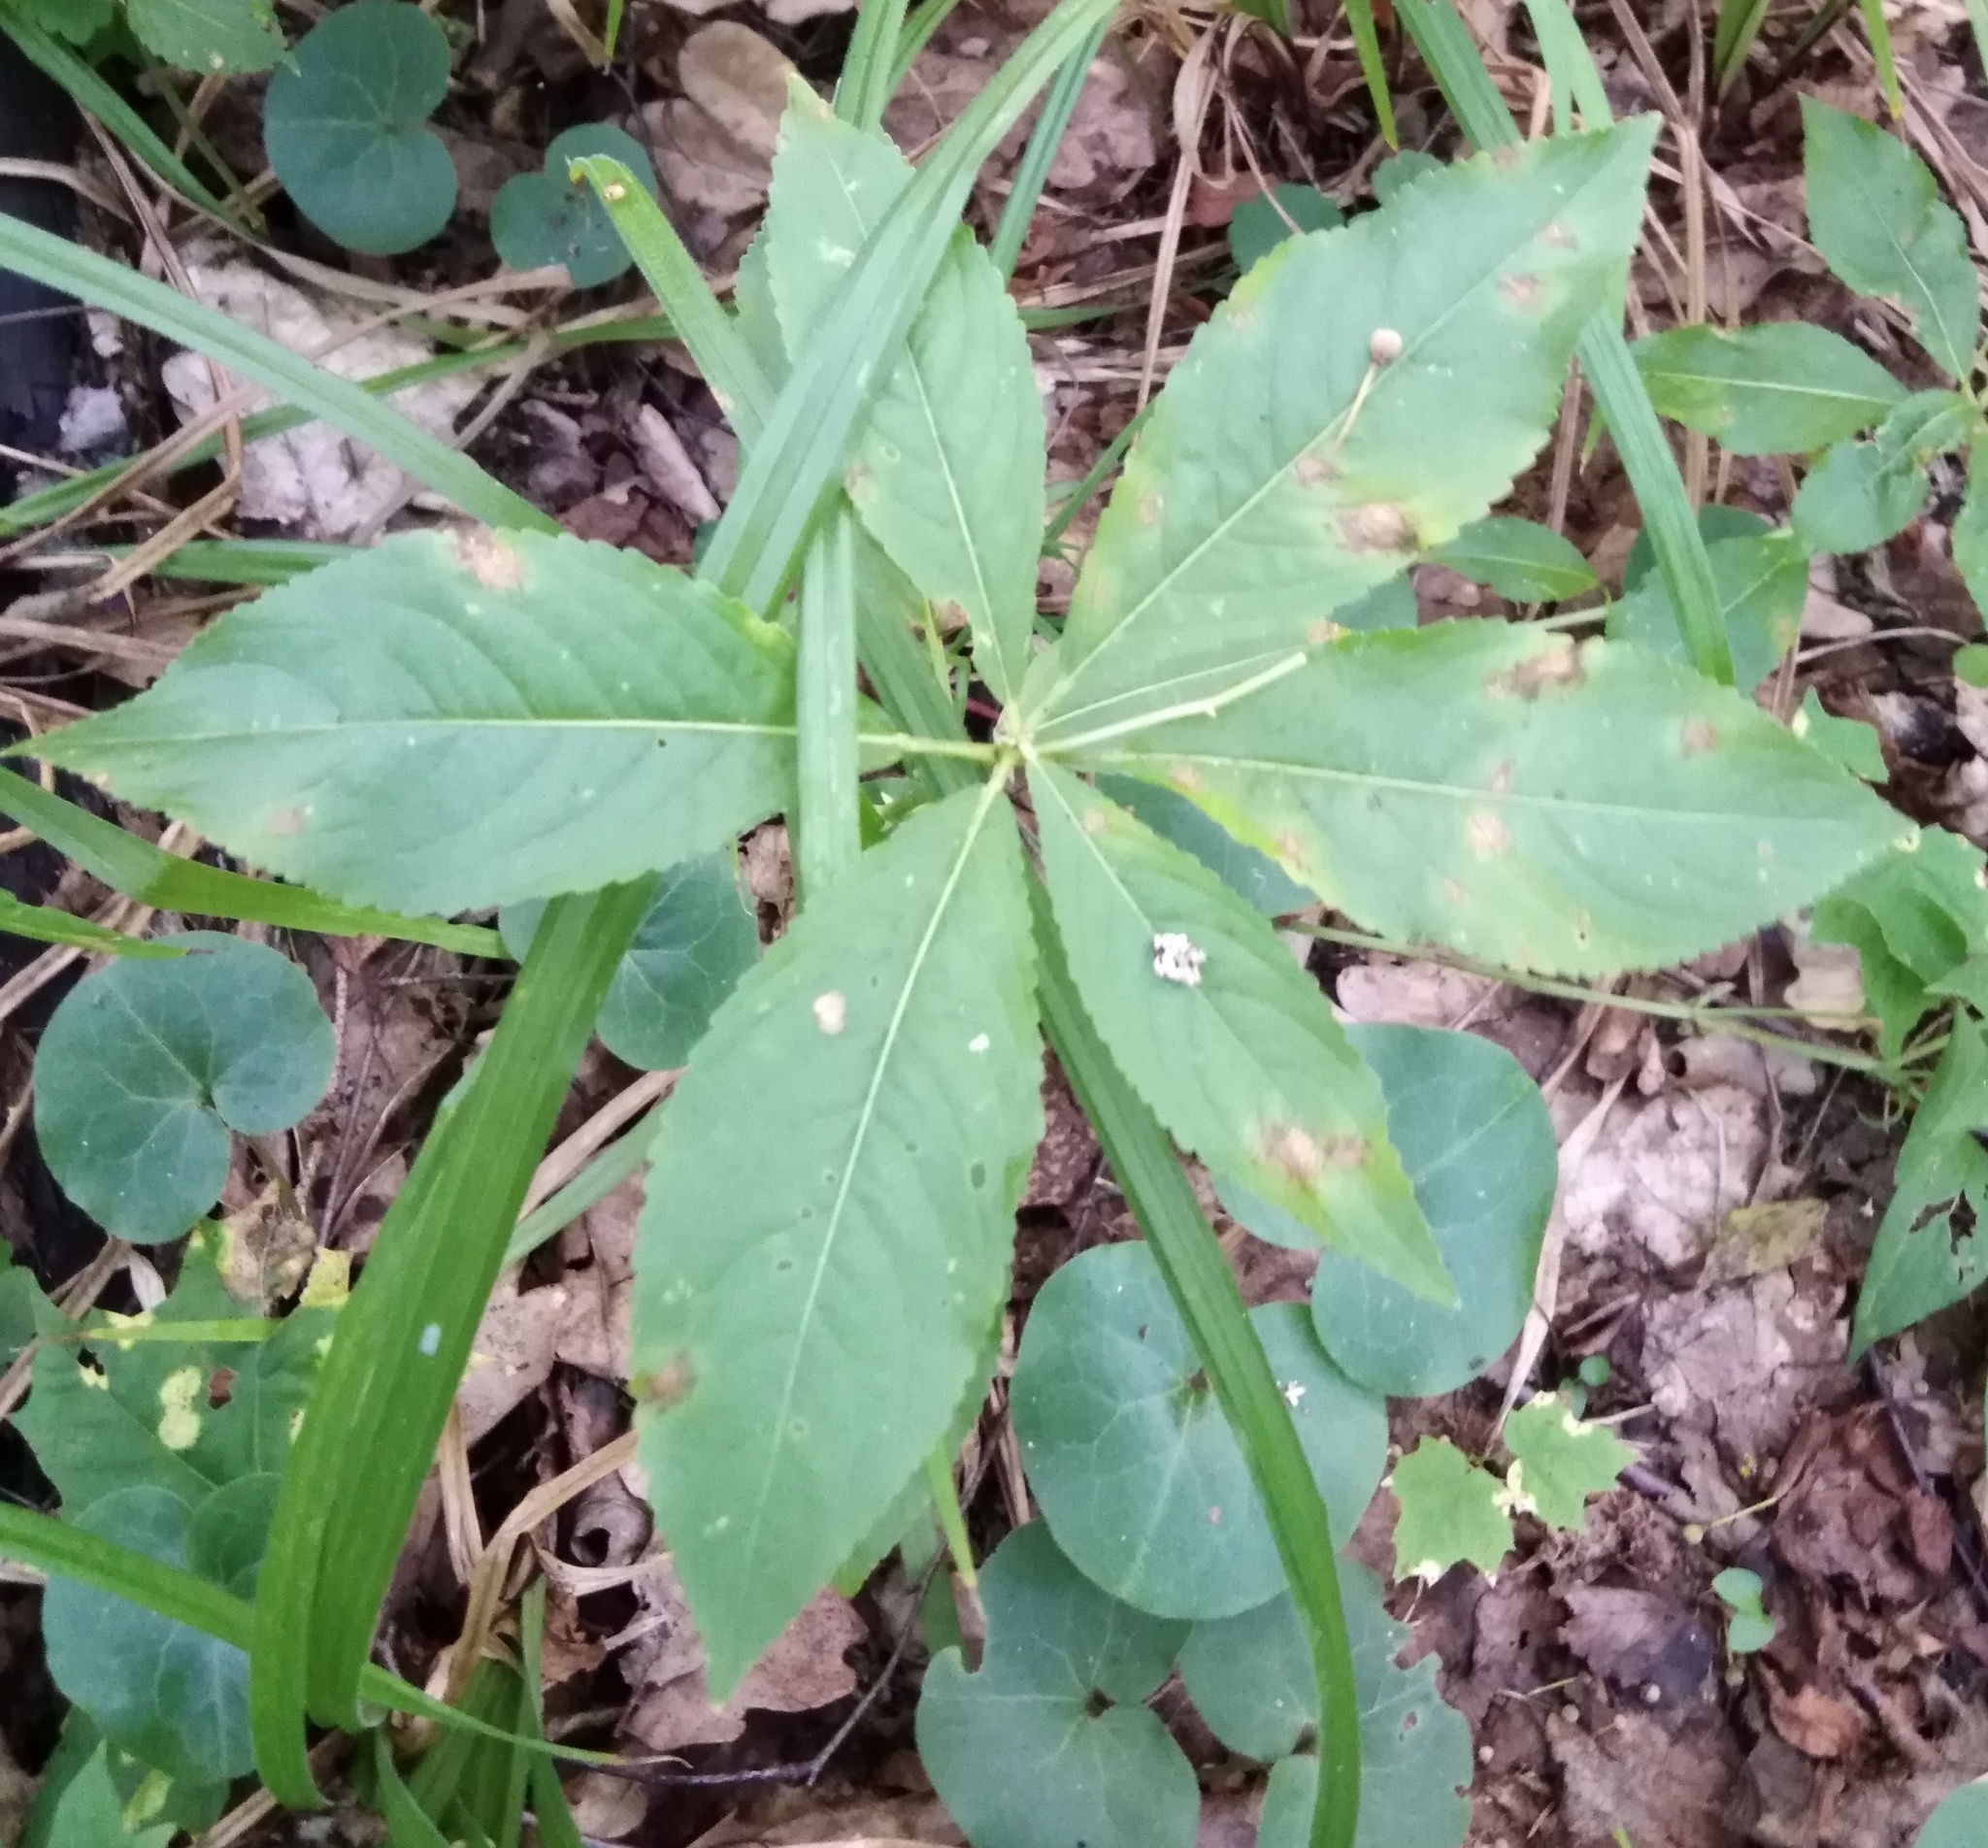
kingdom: Plantae
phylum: Tracheophyta
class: Magnoliopsida
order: Malpighiales
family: Euphorbiaceae
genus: Mercurialis
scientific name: Mercurialis perennis
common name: Dog mercury
